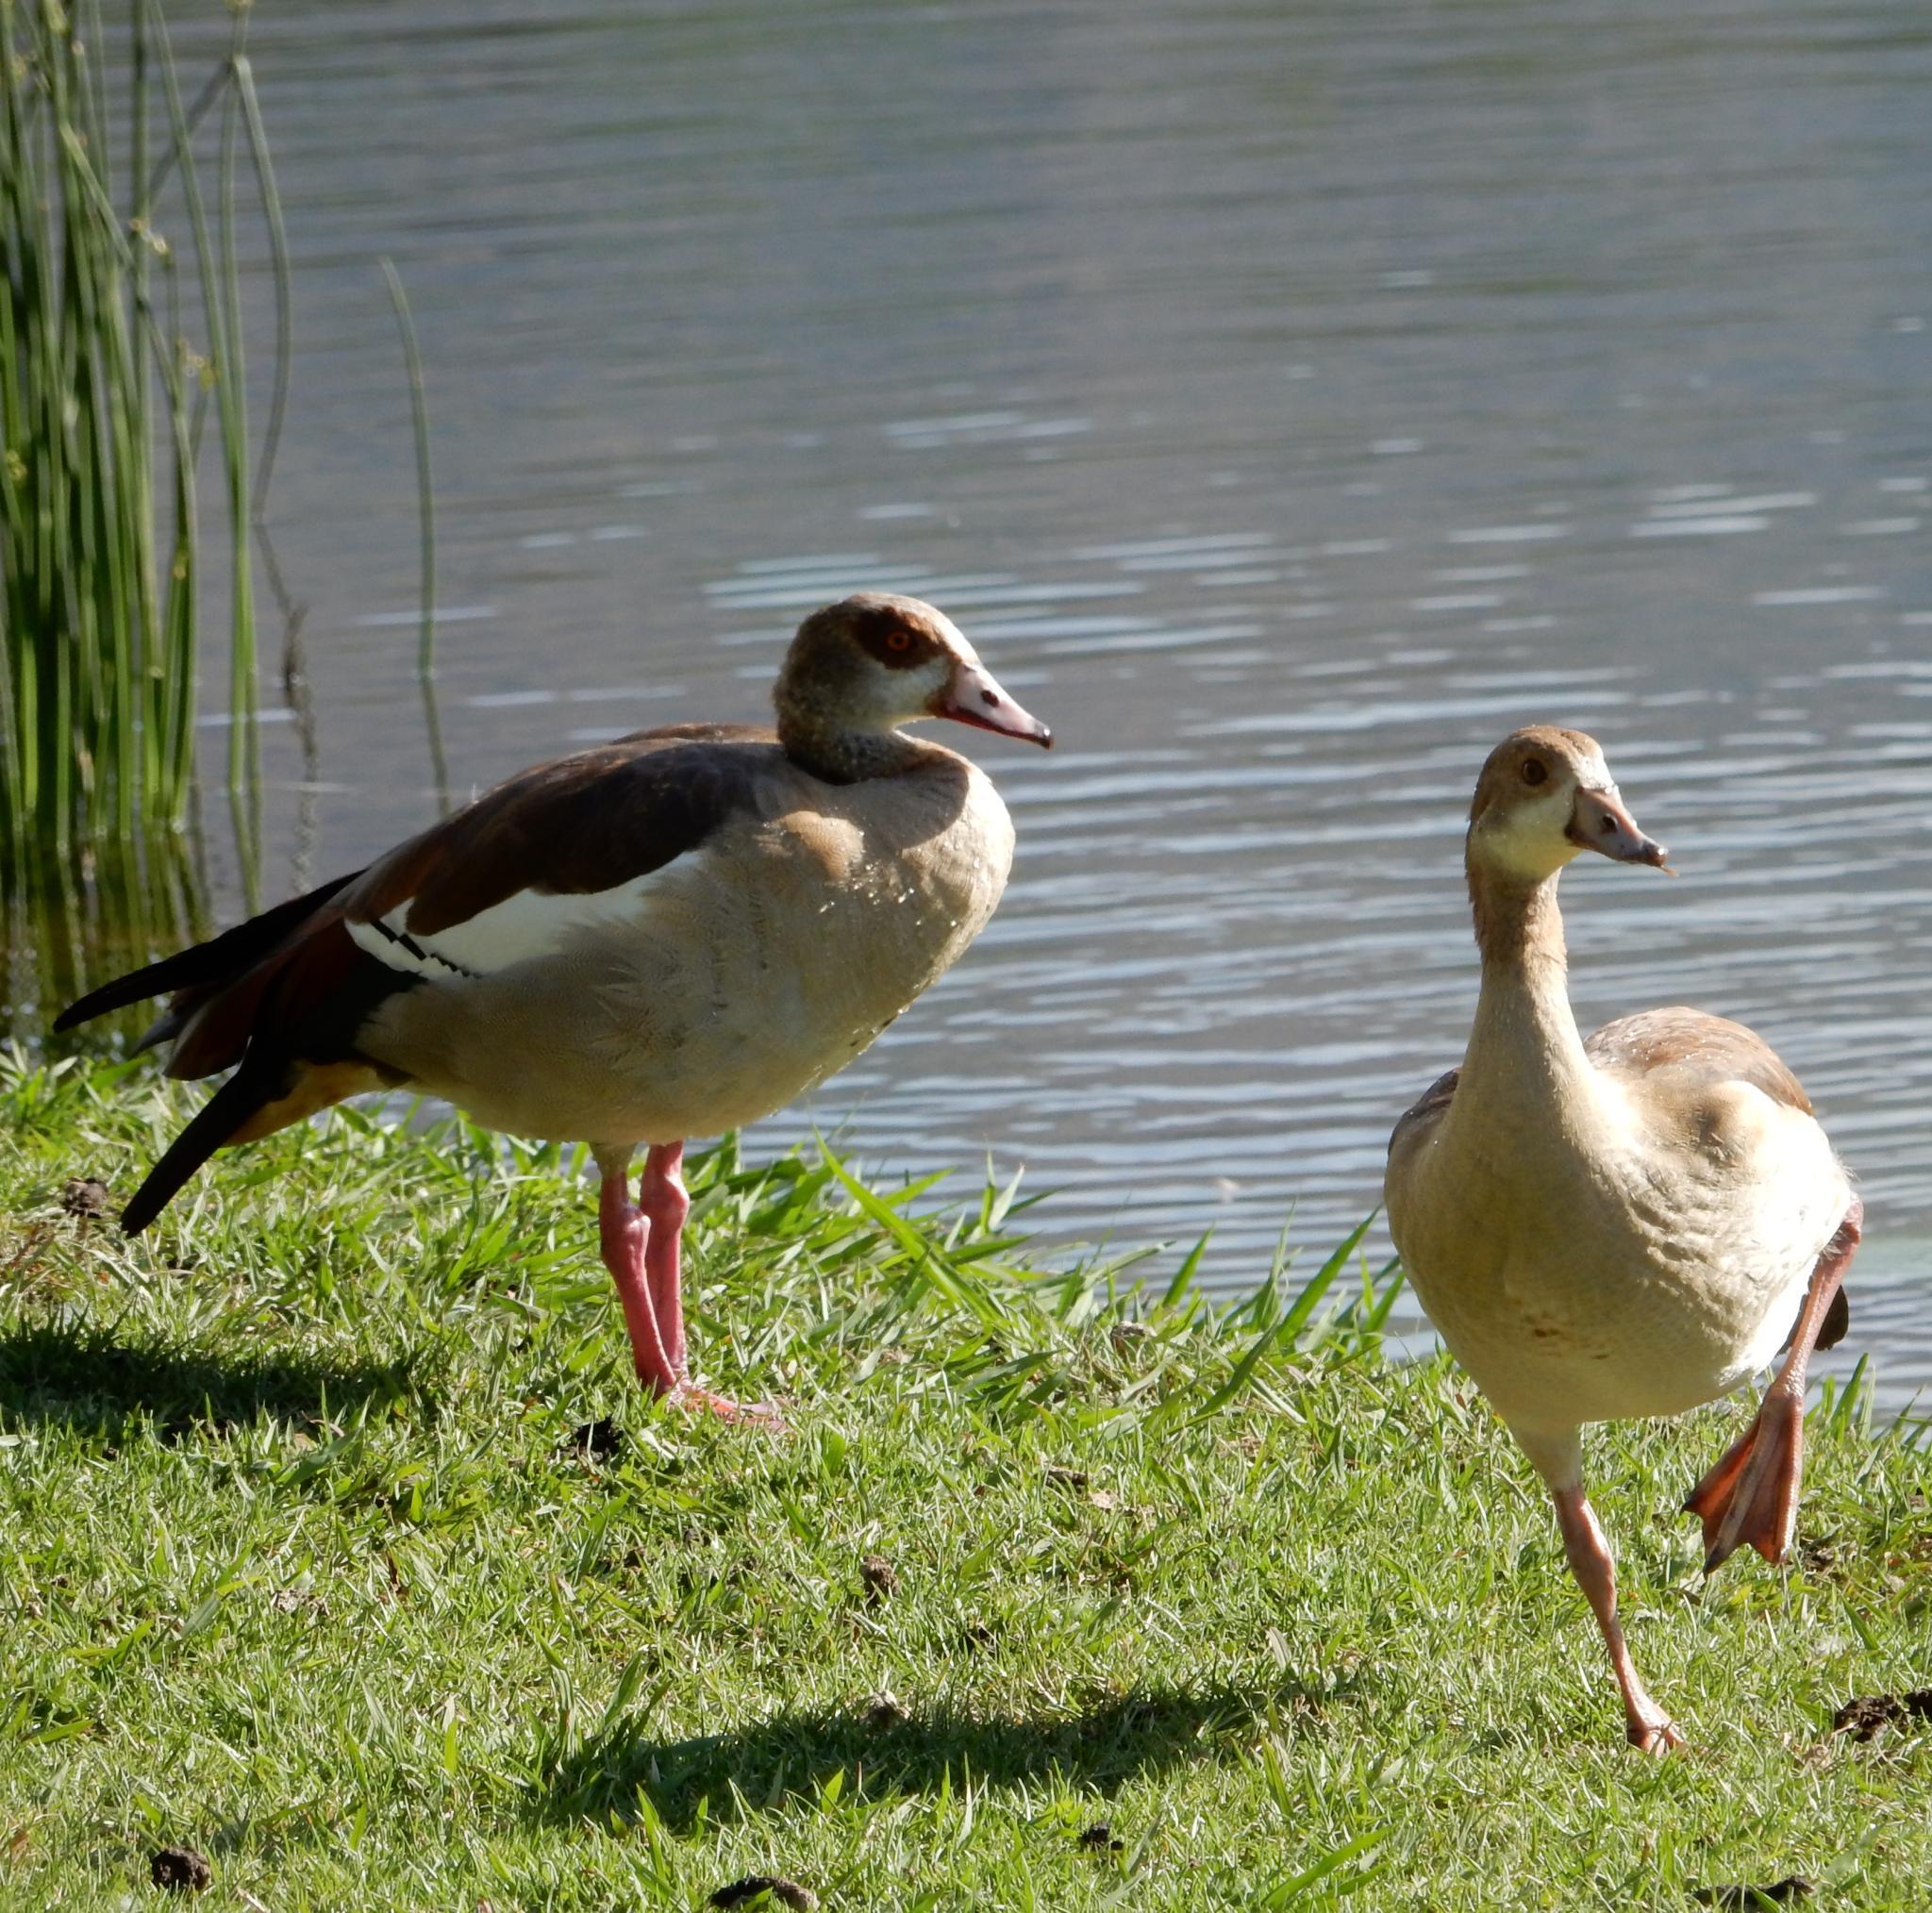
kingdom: Animalia
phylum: Chordata
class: Aves
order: Anseriformes
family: Anatidae
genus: Alopochen
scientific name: Alopochen aegyptiaca
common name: Egyptian goose
